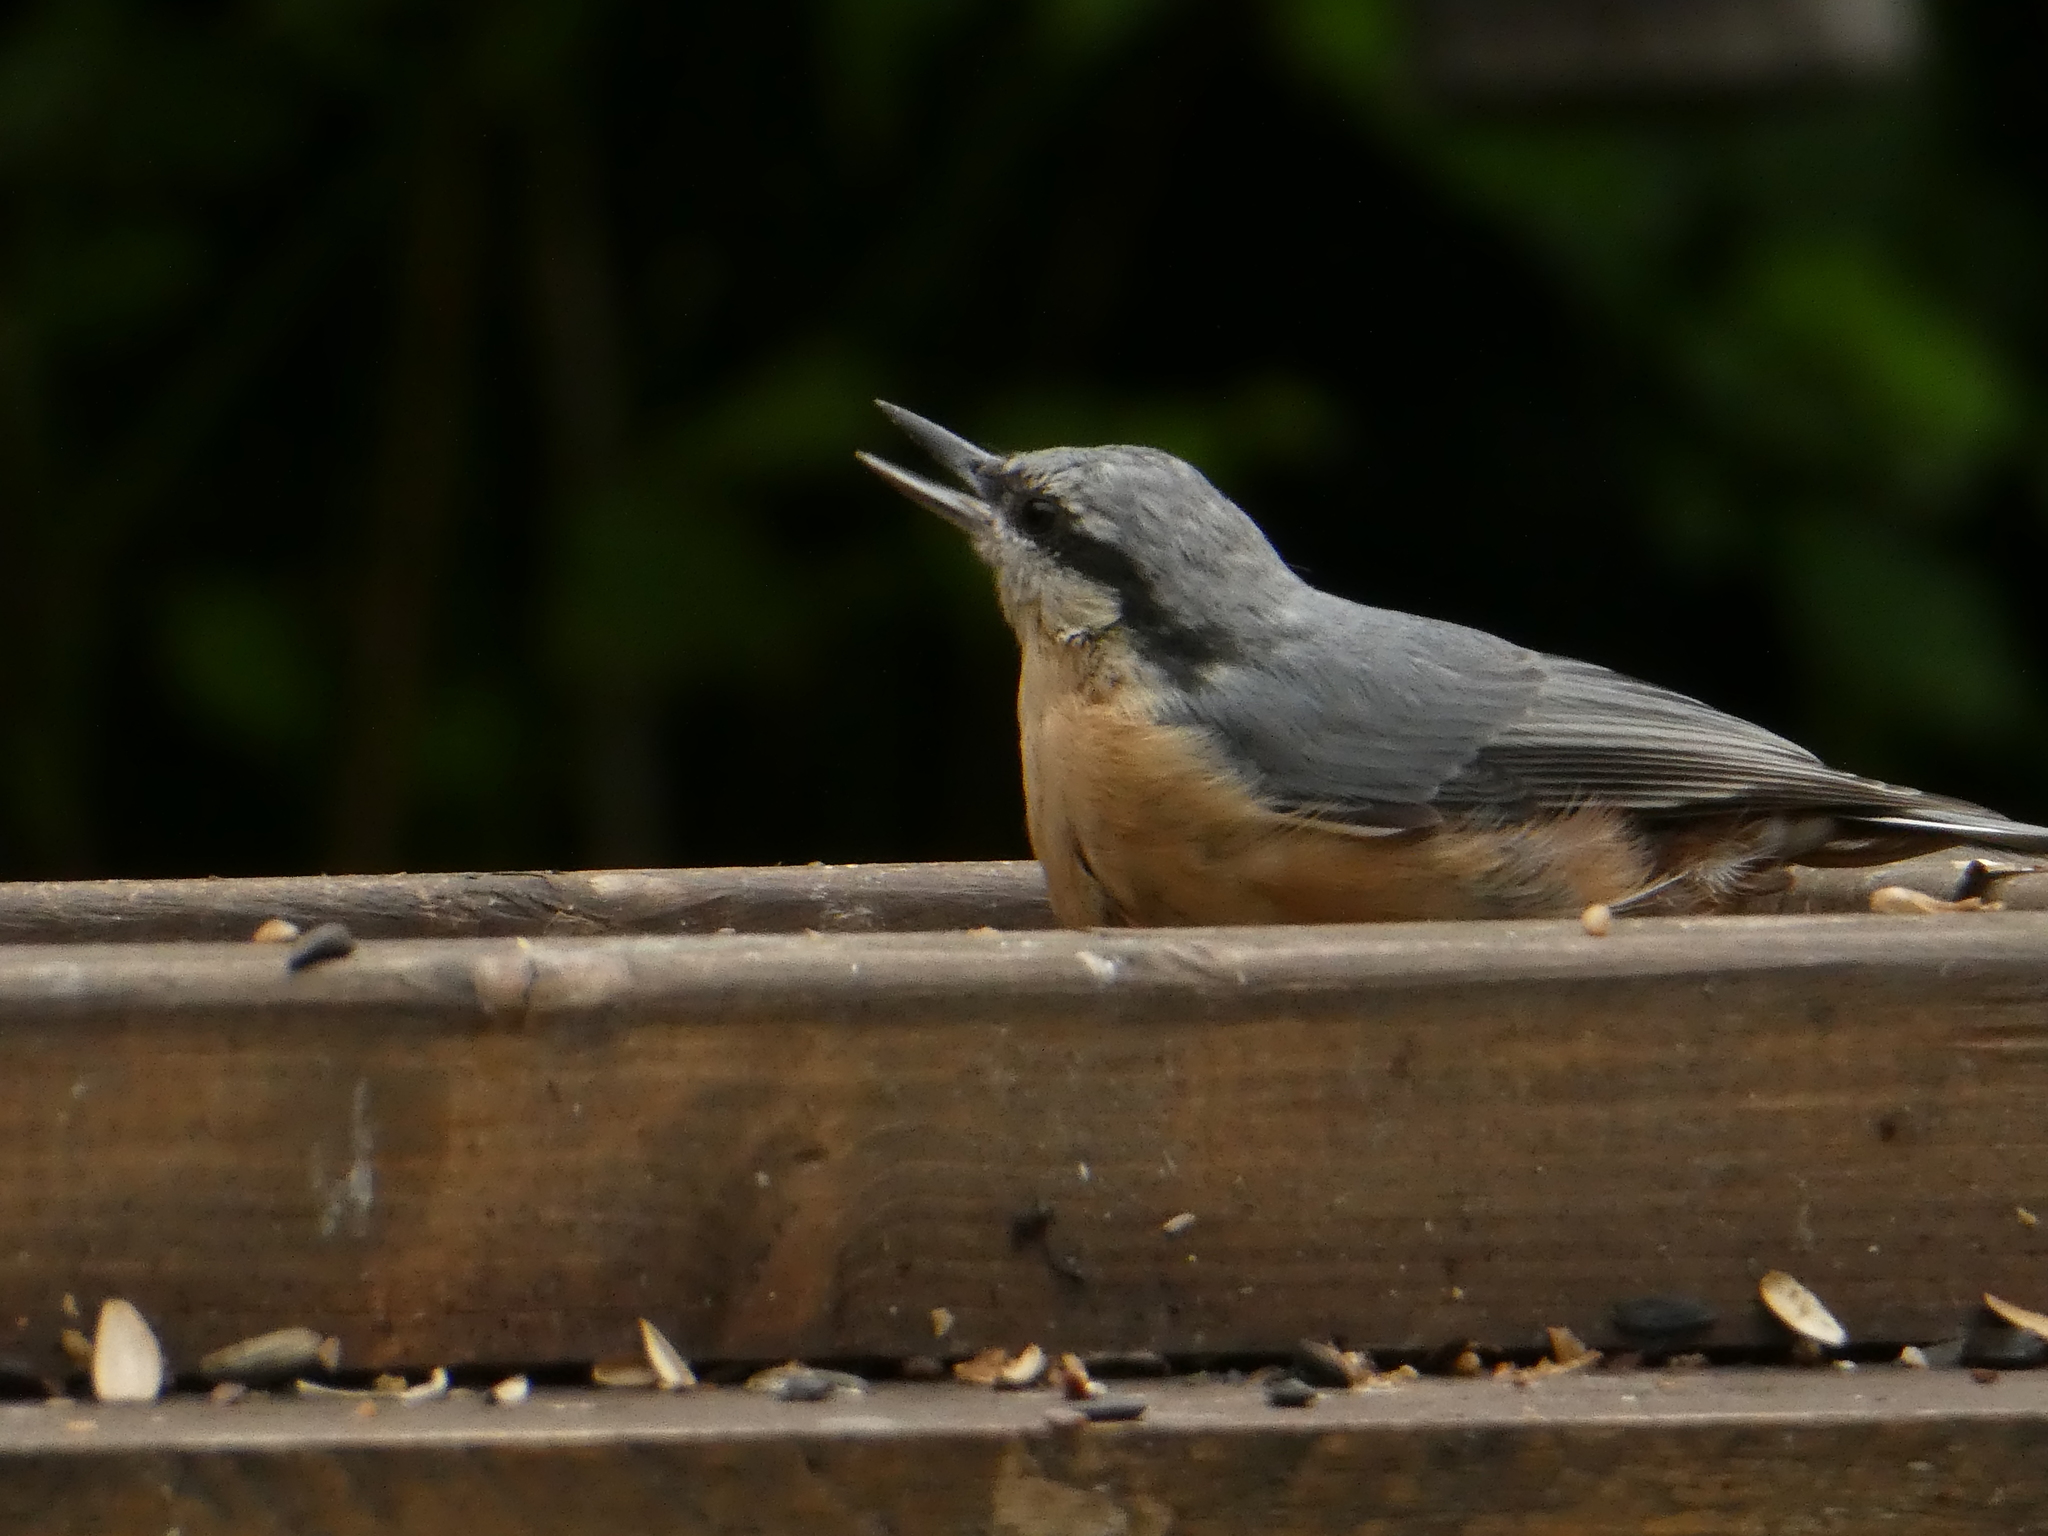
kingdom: Animalia
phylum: Chordata
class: Aves
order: Passeriformes
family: Sittidae
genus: Sitta
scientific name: Sitta europaea
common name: Eurasian nuthatch
